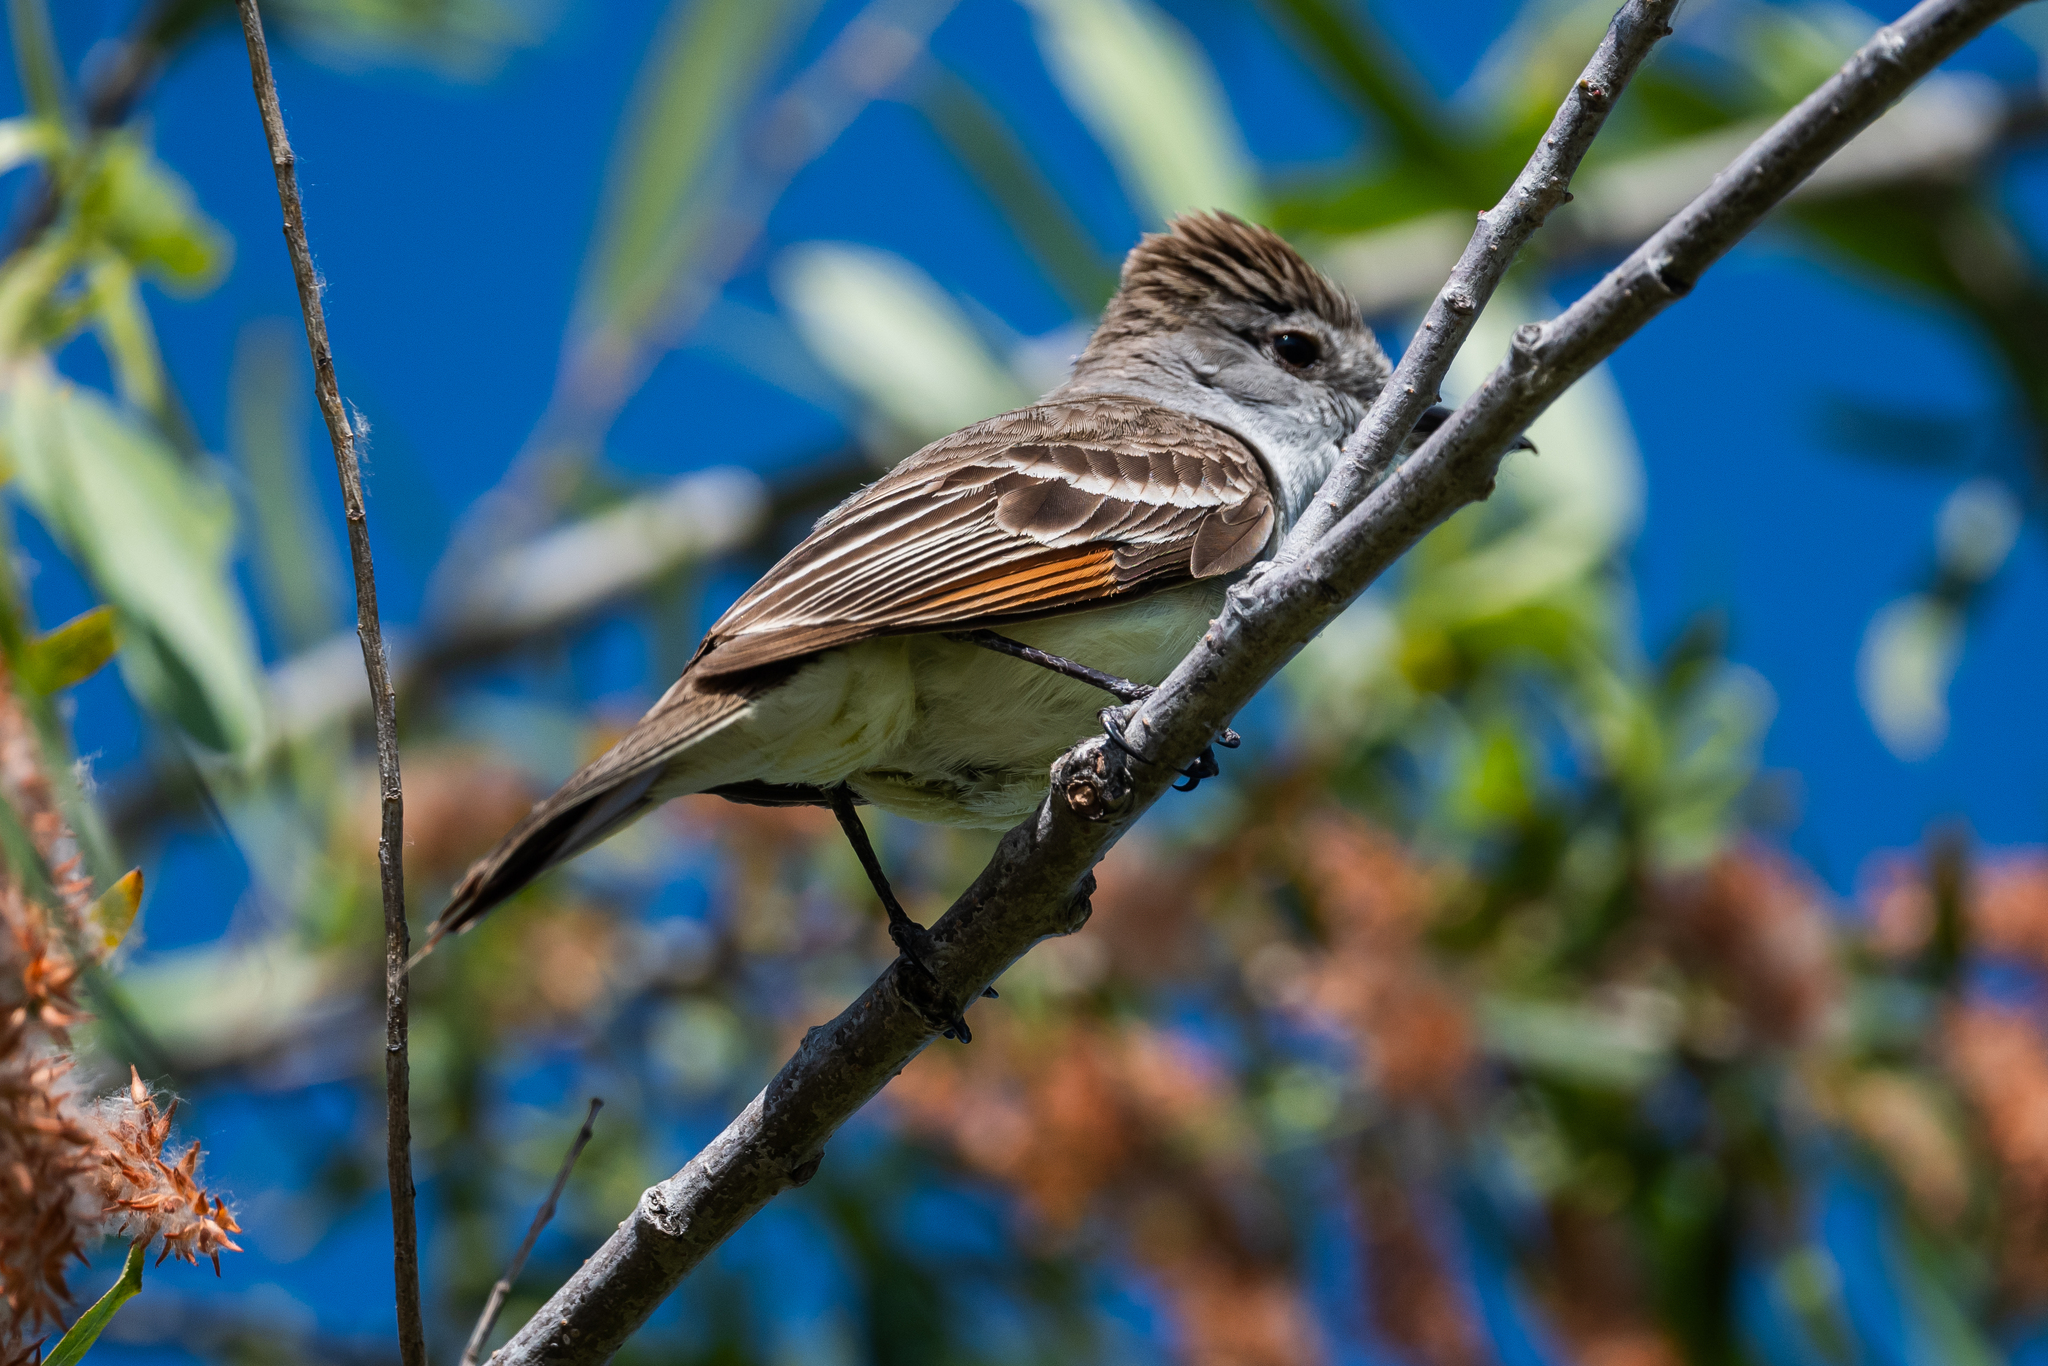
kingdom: Animalia
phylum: Chordata
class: Aves
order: Passeriformes
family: Tyrannidae
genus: Myiarchus
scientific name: Myiarchus cinerascens
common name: Ash-throated flycatcher
